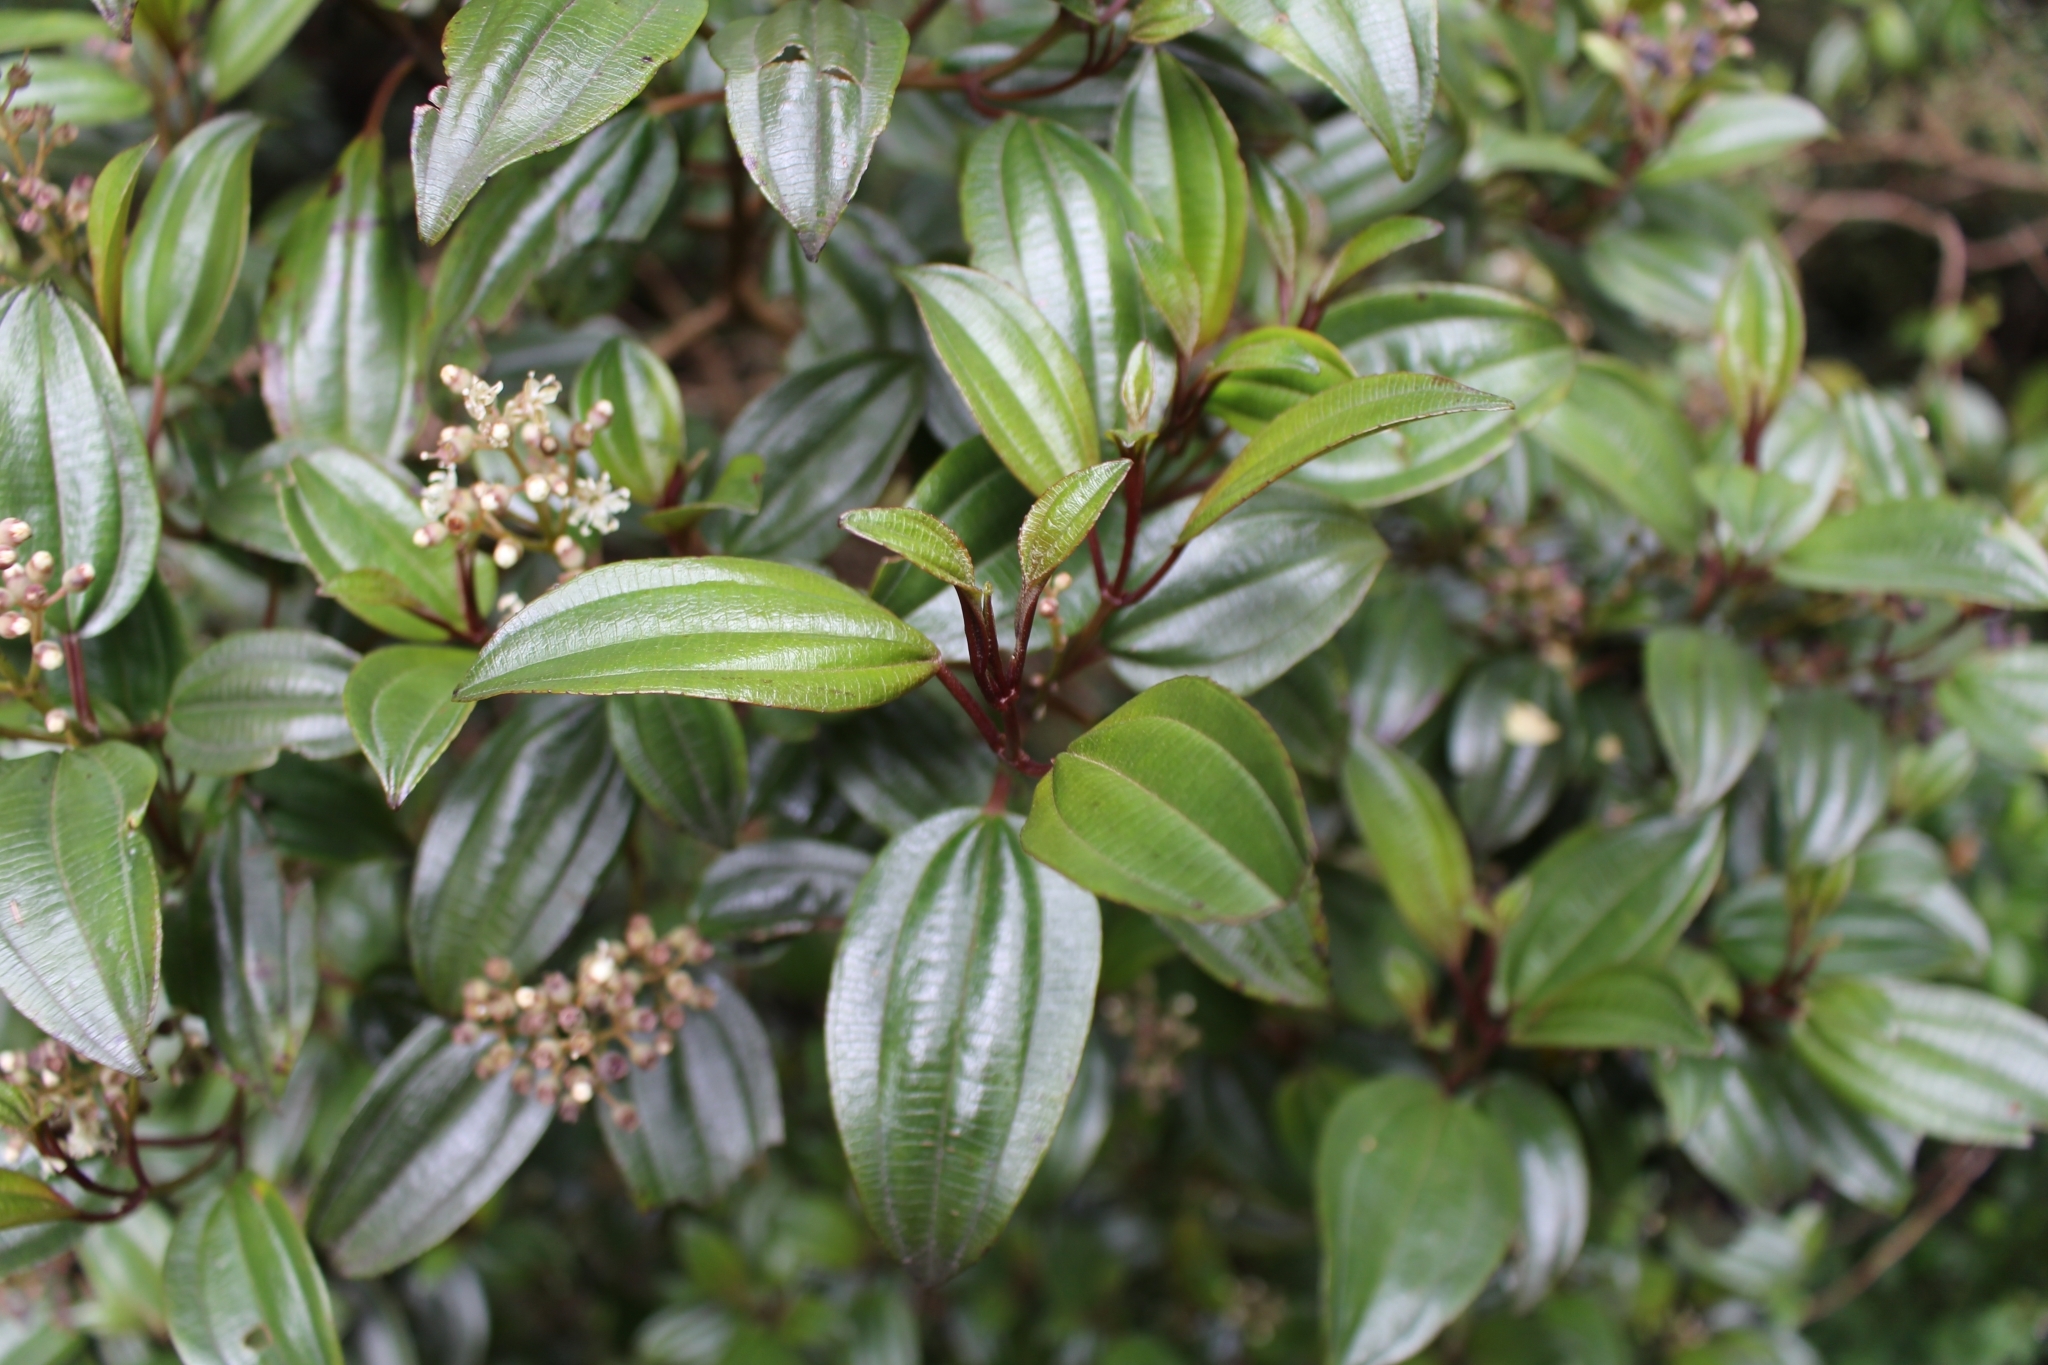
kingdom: Plantae
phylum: Tracheophyta
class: Magnoliopsida
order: Myrtales
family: Melastomataceae
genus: Miconia
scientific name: Miconia schnellii
